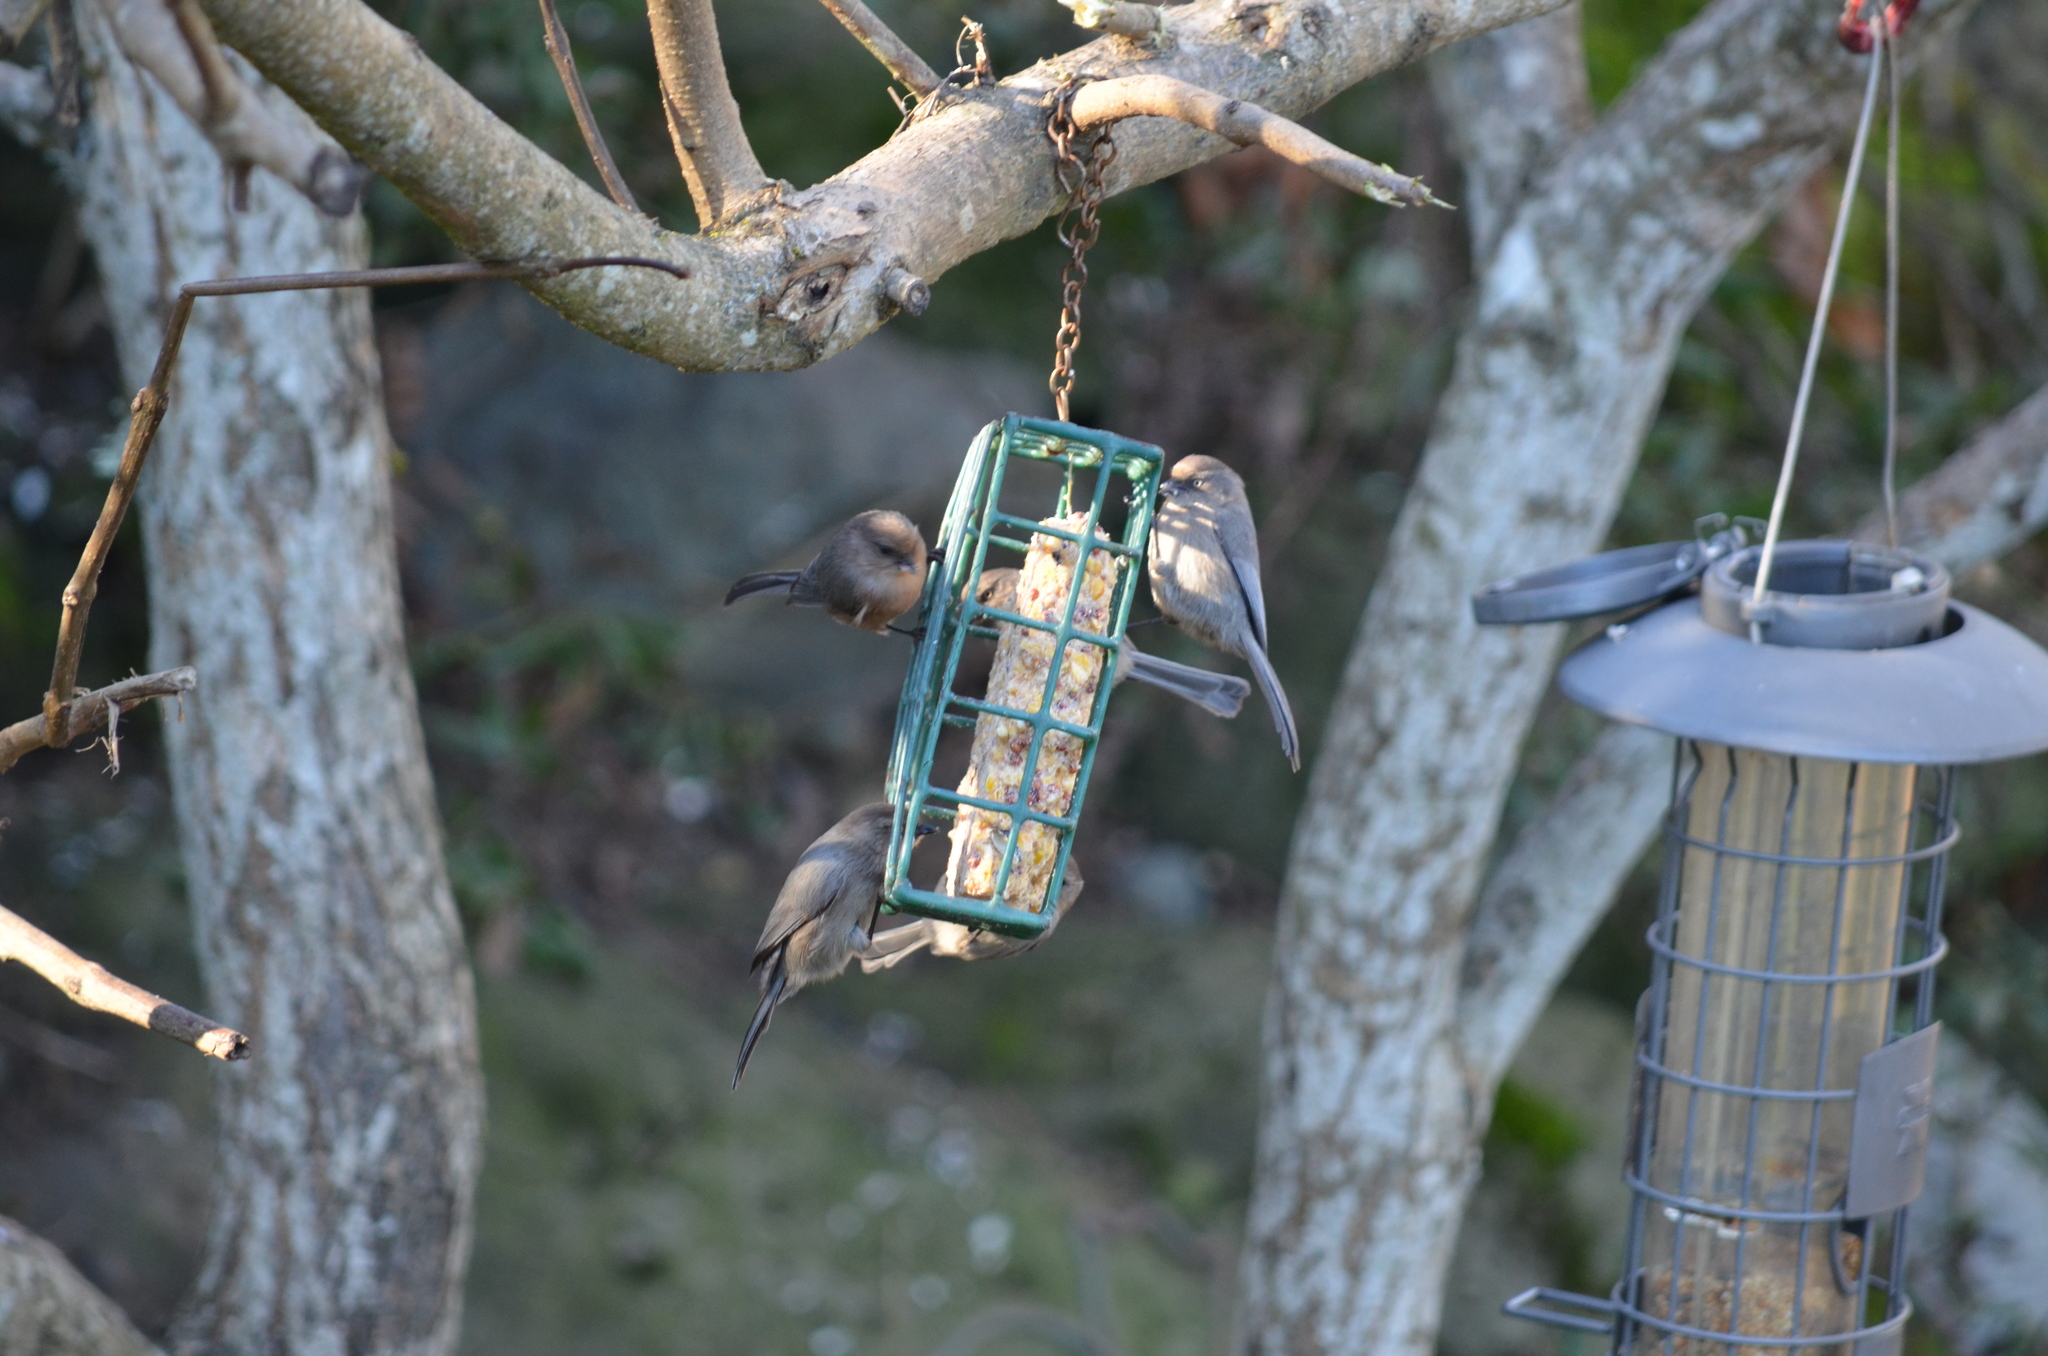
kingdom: Animalia
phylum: Chordata
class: Aves
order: Passeriformes
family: Aegithalidae
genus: Psaltriparus
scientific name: Psaltriparus minimus
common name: American bushtit
